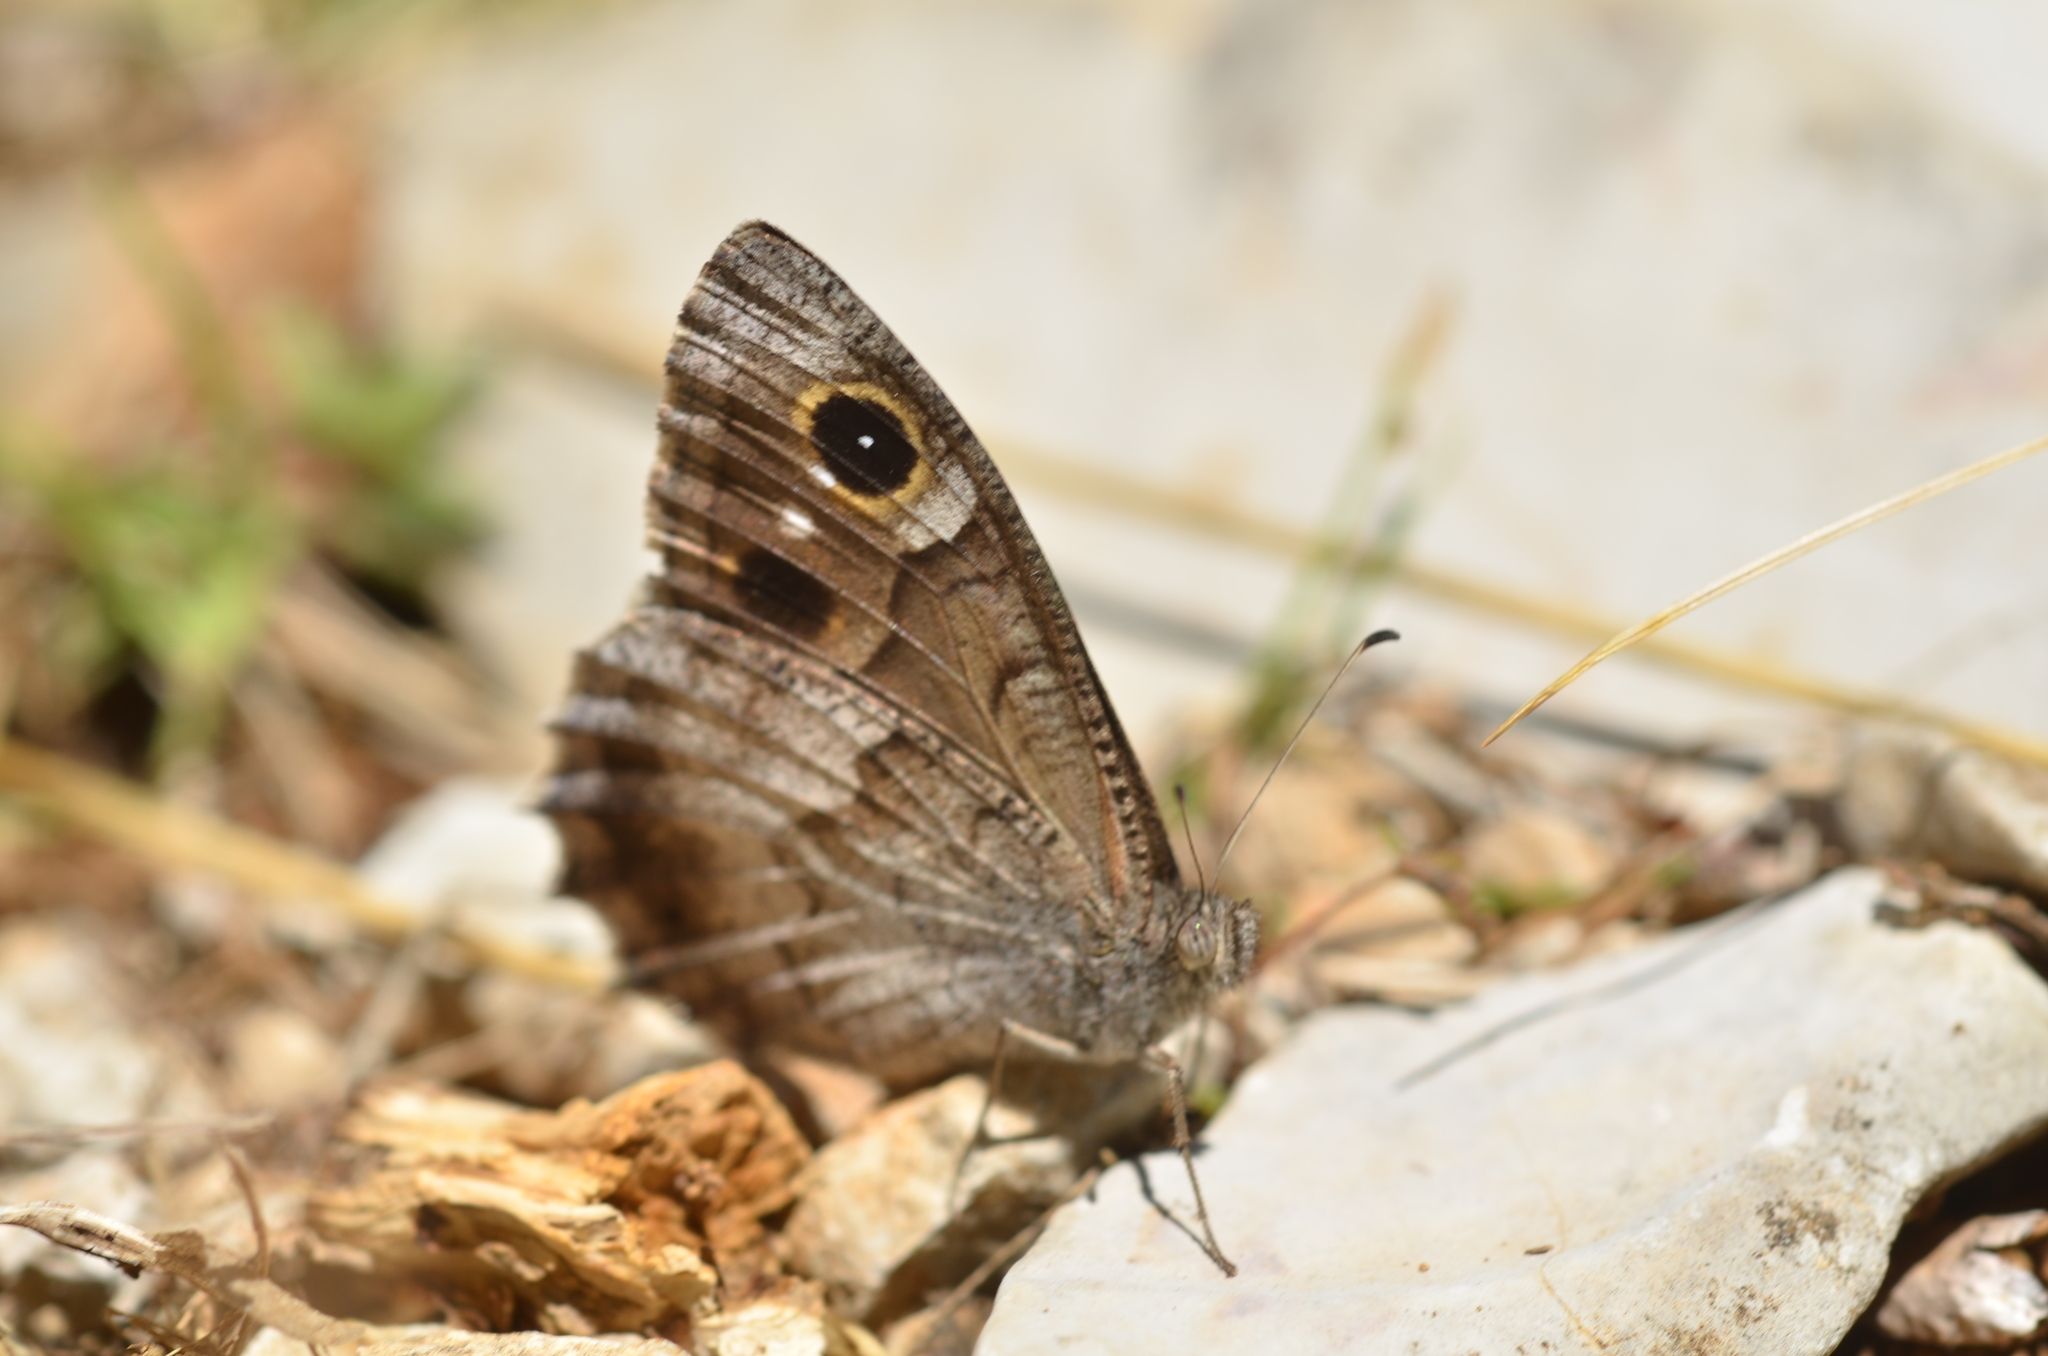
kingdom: Animalia
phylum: Arthropoda
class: Insecta
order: Lepidoptera
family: Nymphalidae
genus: Hipparchia
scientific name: Hipparchia statilinus
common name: Tree grayling
